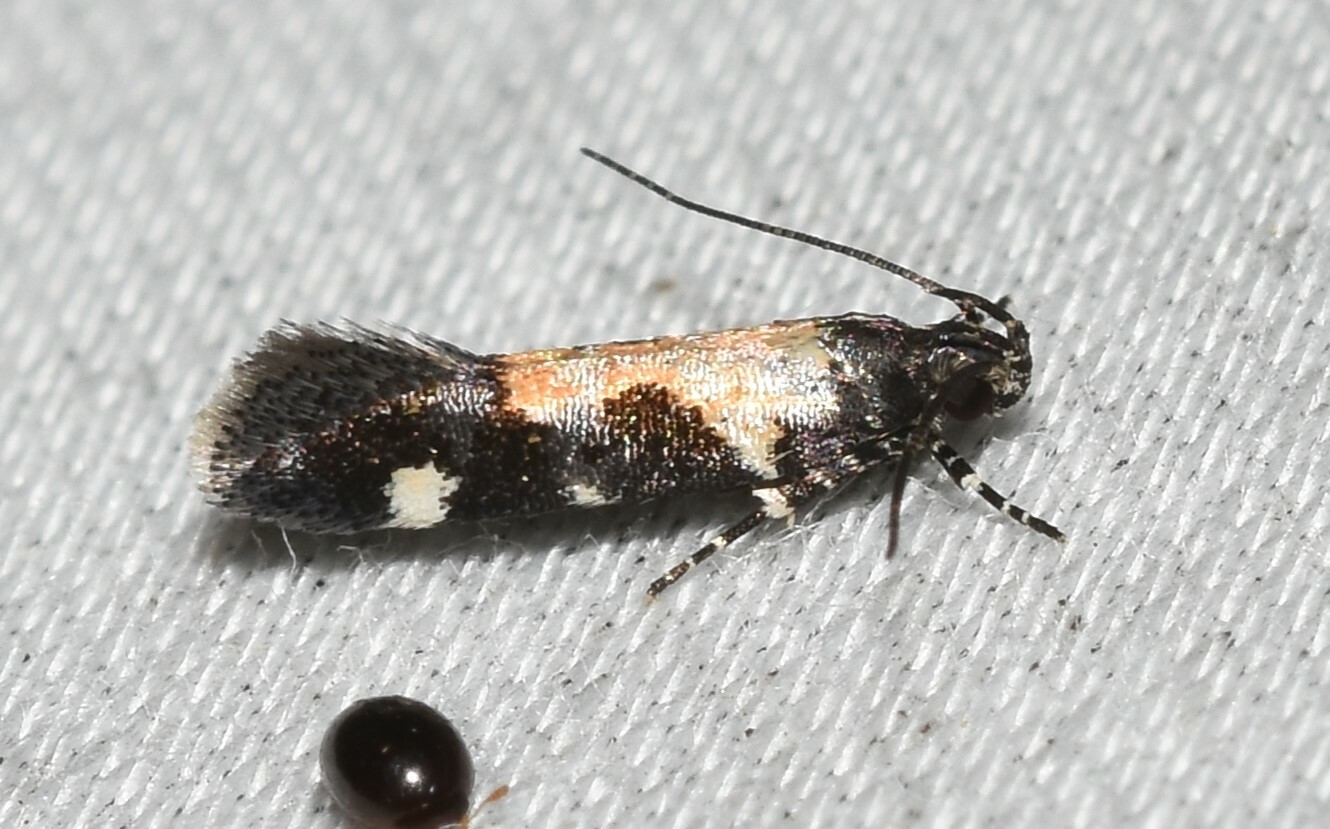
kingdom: Animalia
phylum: Arthropoda
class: Insecta
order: Lepidoptera
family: Gelechiidae
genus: Stegasta
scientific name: Stegasta bosqueella
